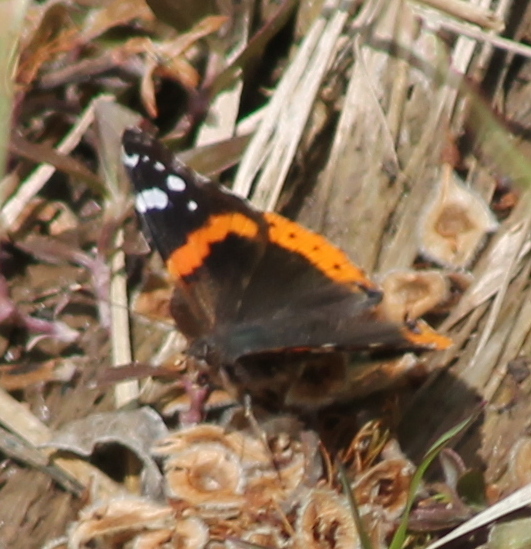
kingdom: Animalia
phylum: Arthropoda
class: Insecta
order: Lepidoptera
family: Nymphalidae
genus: Vanessa
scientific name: Vanessa atalanta
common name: Red admiral
